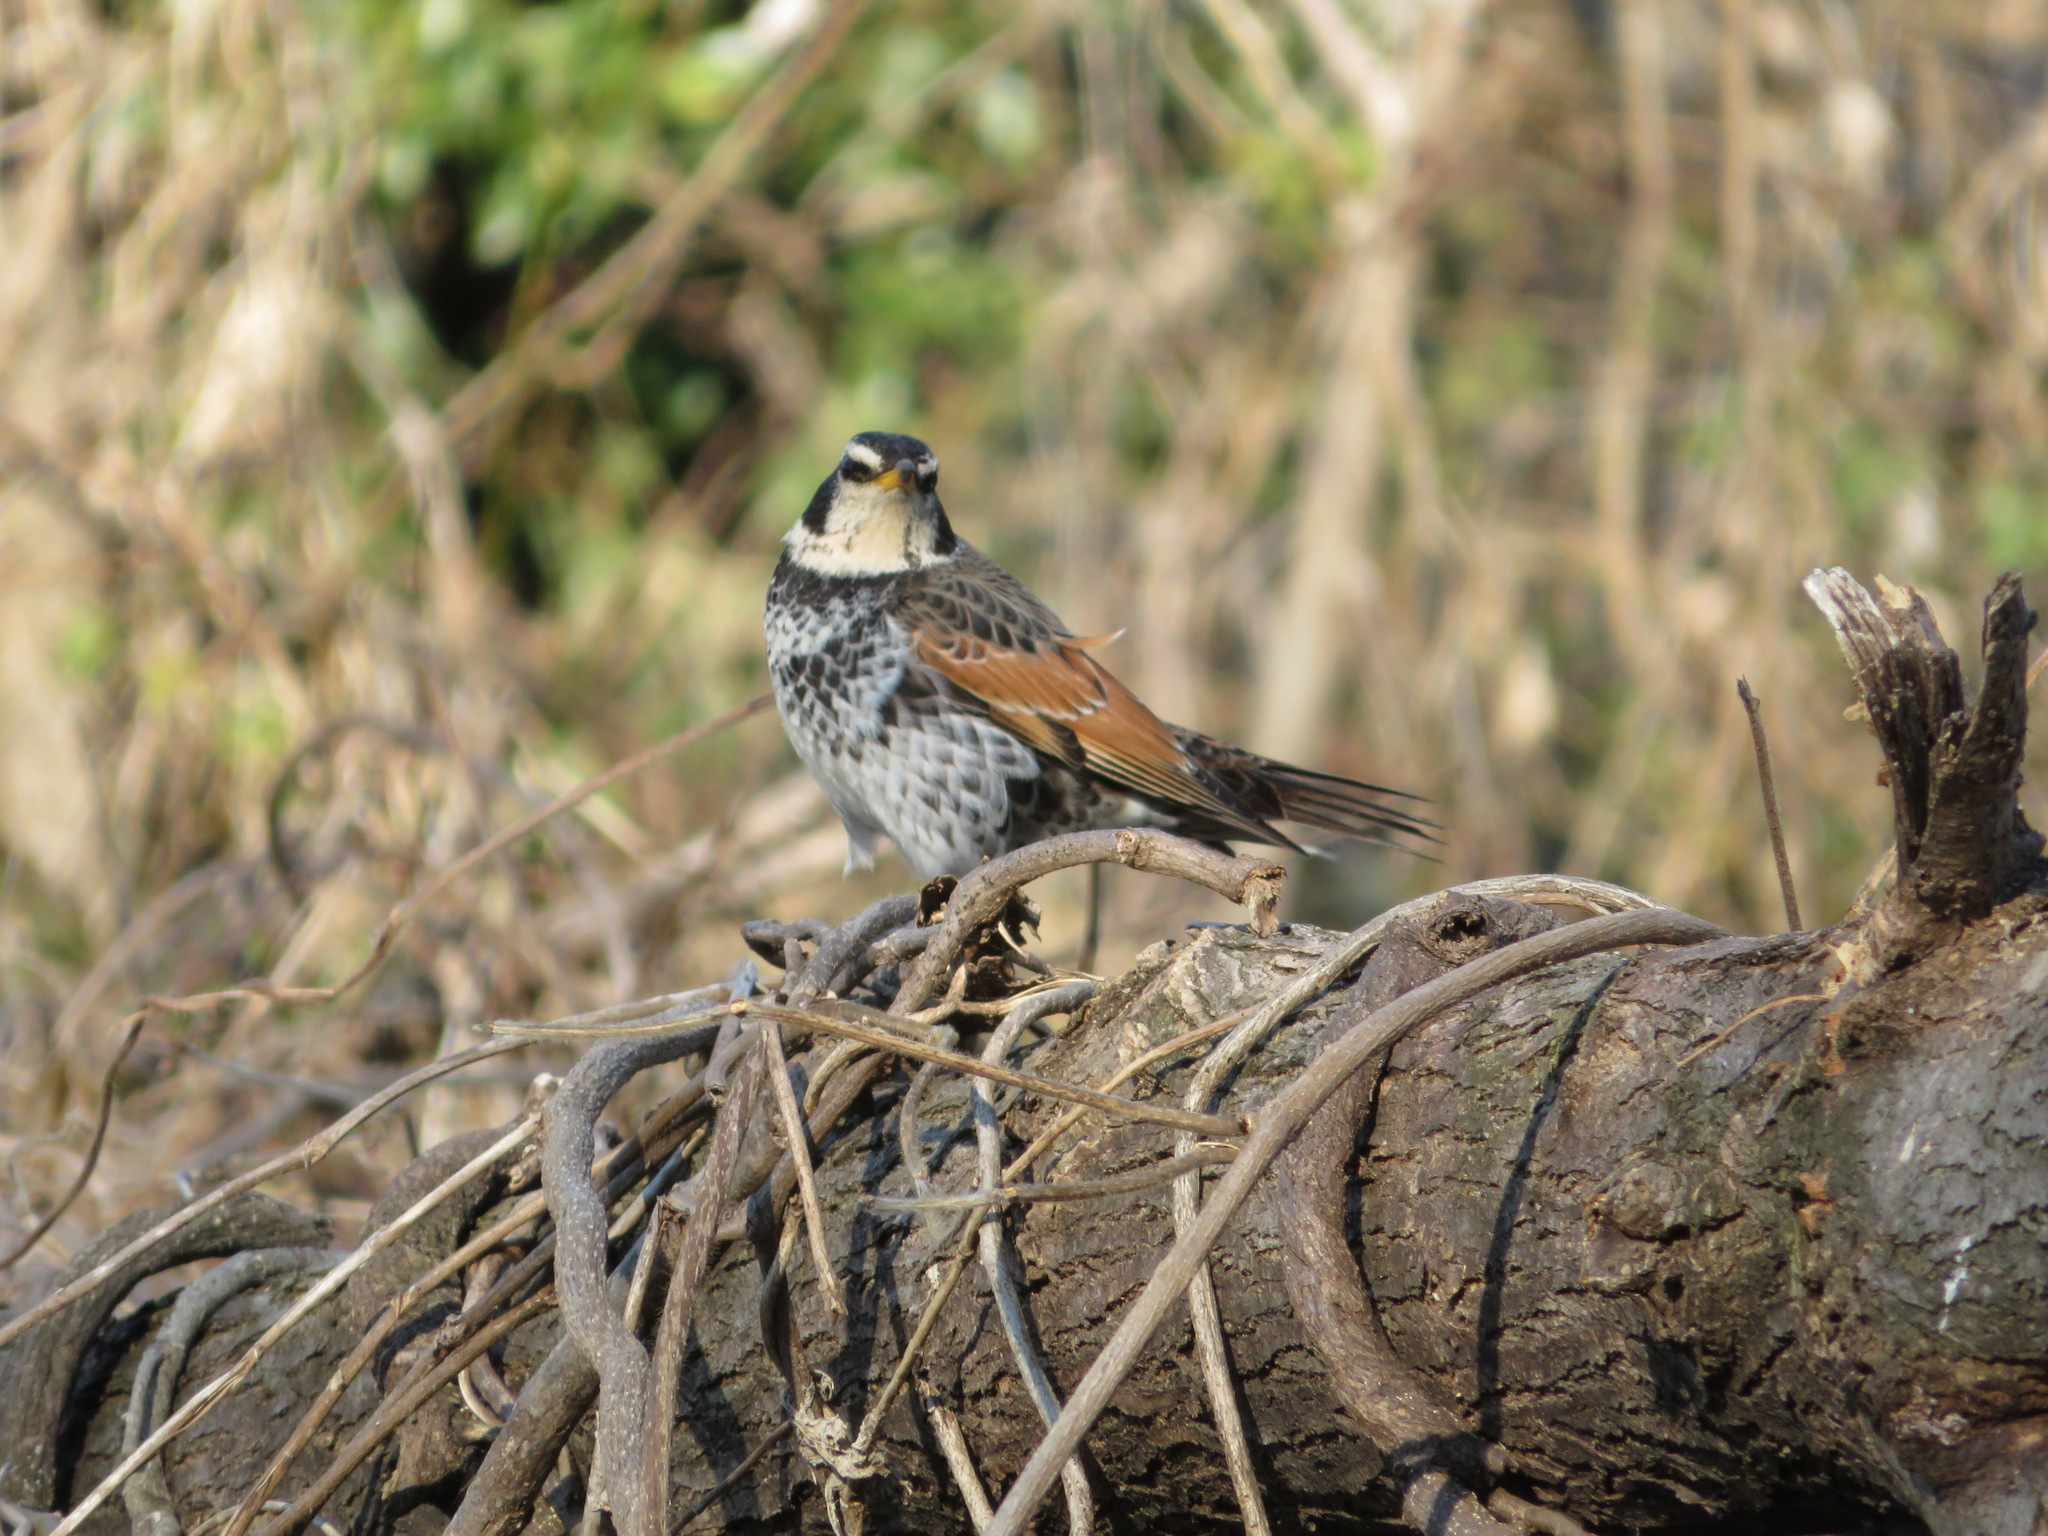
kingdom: Animalia
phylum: Chordata
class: Aves
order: Passeriformes
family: Turdidae
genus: Turdus
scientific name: Turdus eunomus
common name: Dusky thrush
